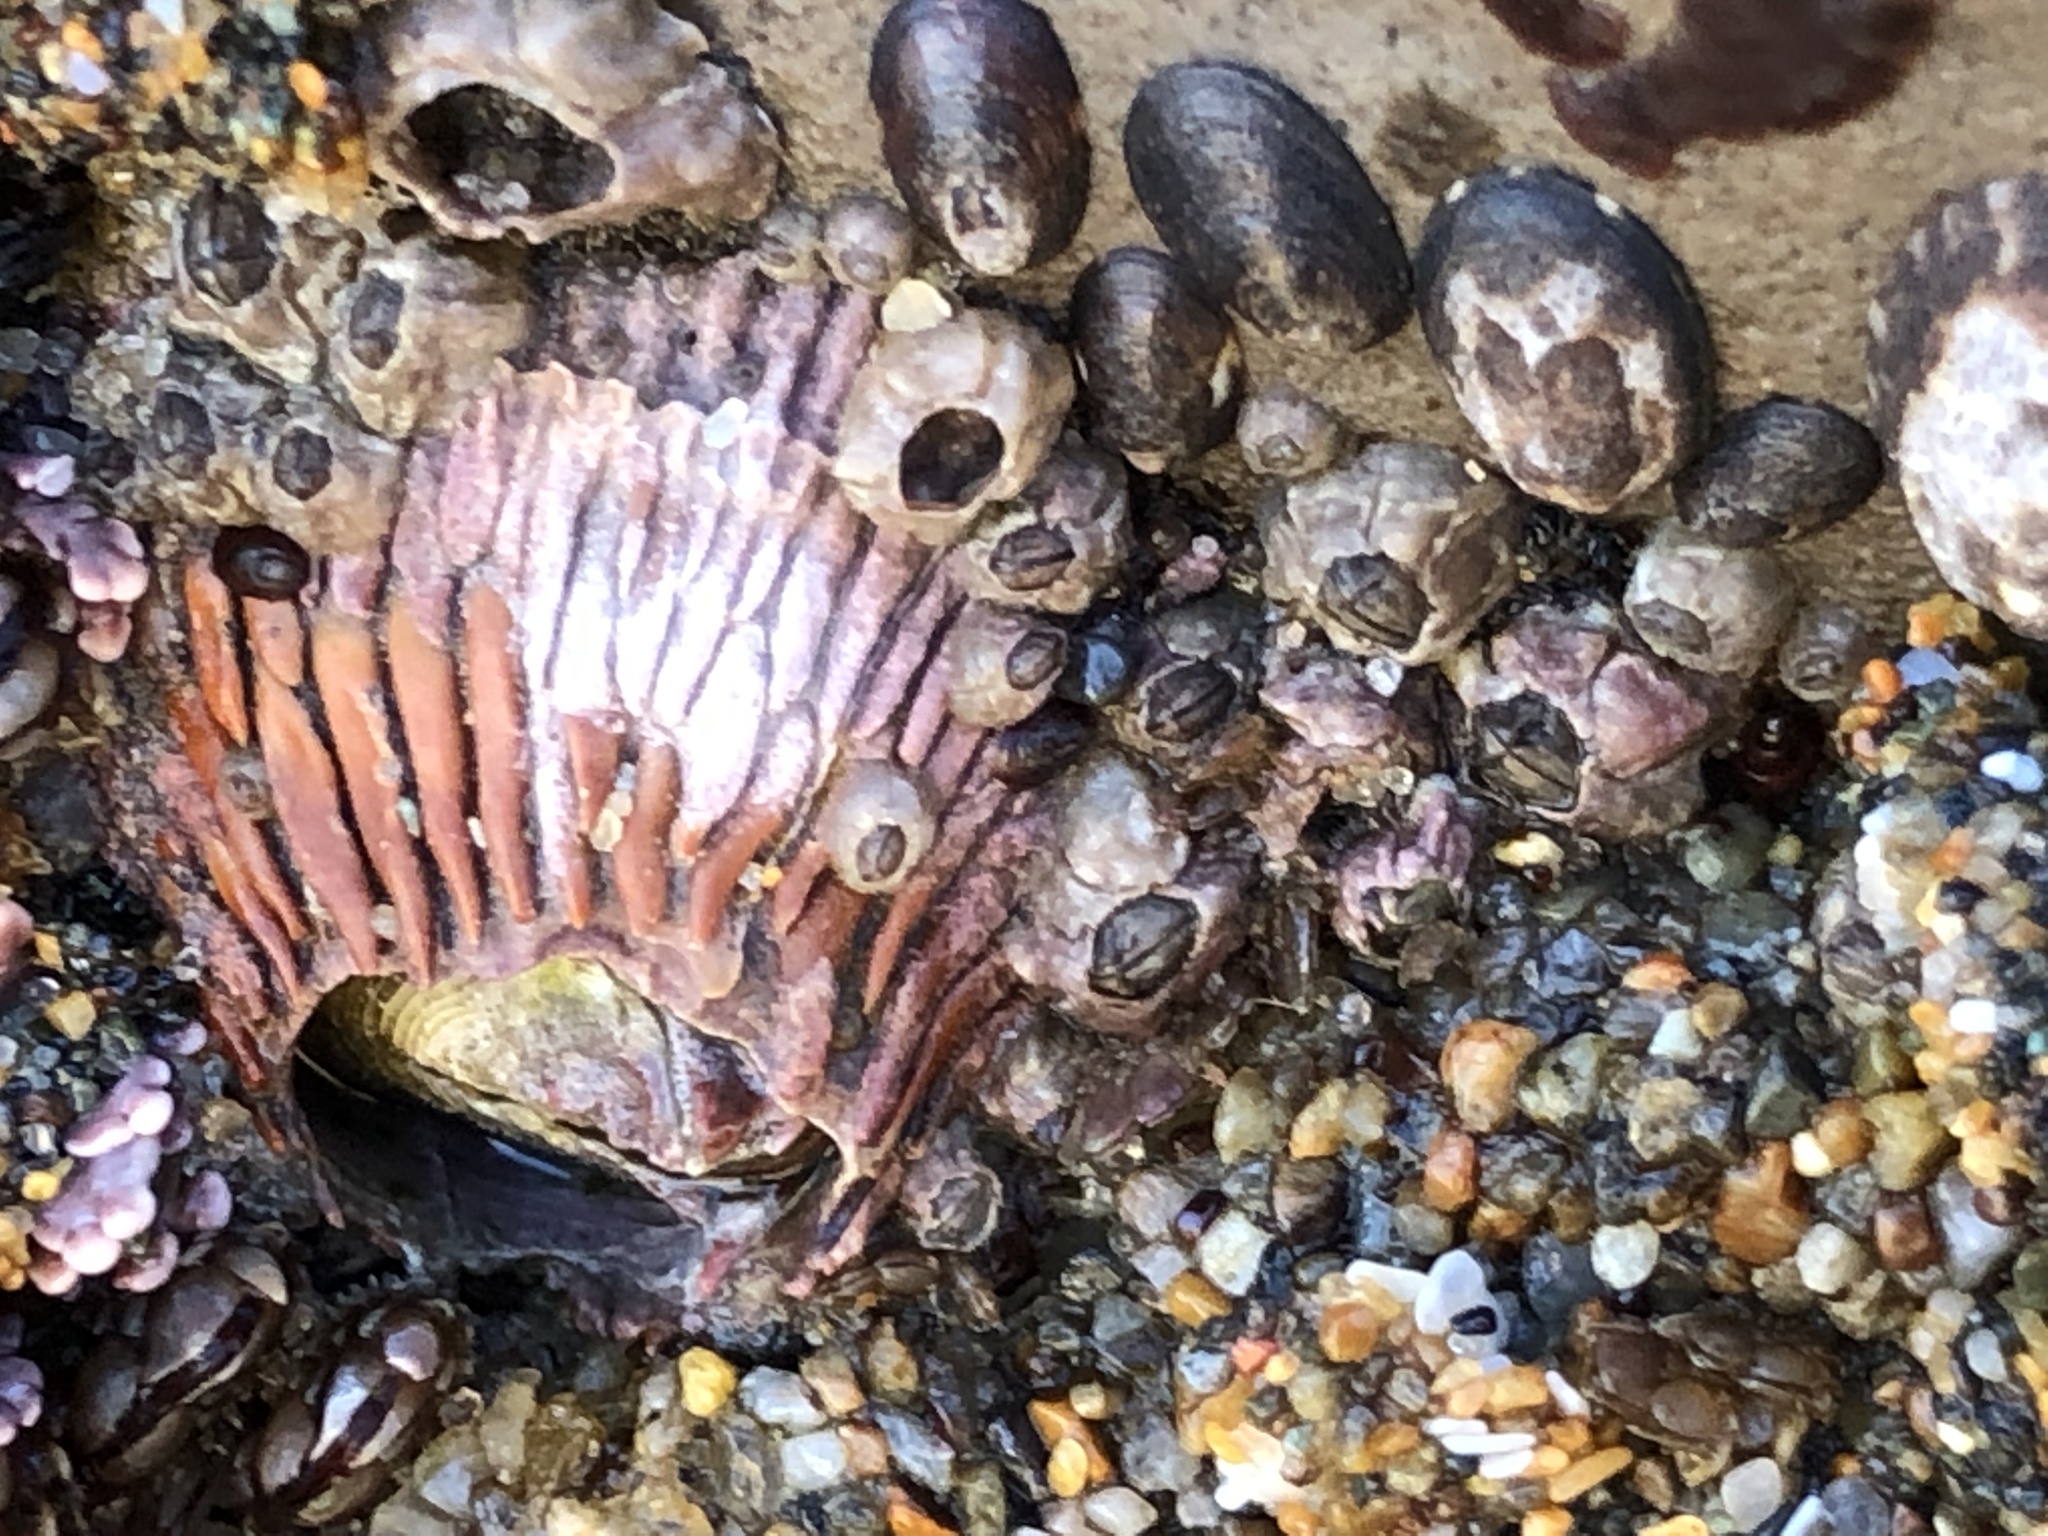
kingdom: Animalia
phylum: Arthropoda
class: Maxillopoda
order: Sessilia
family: Tetraclitidae
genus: Tetraclita
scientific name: Tetraclita rubescens
